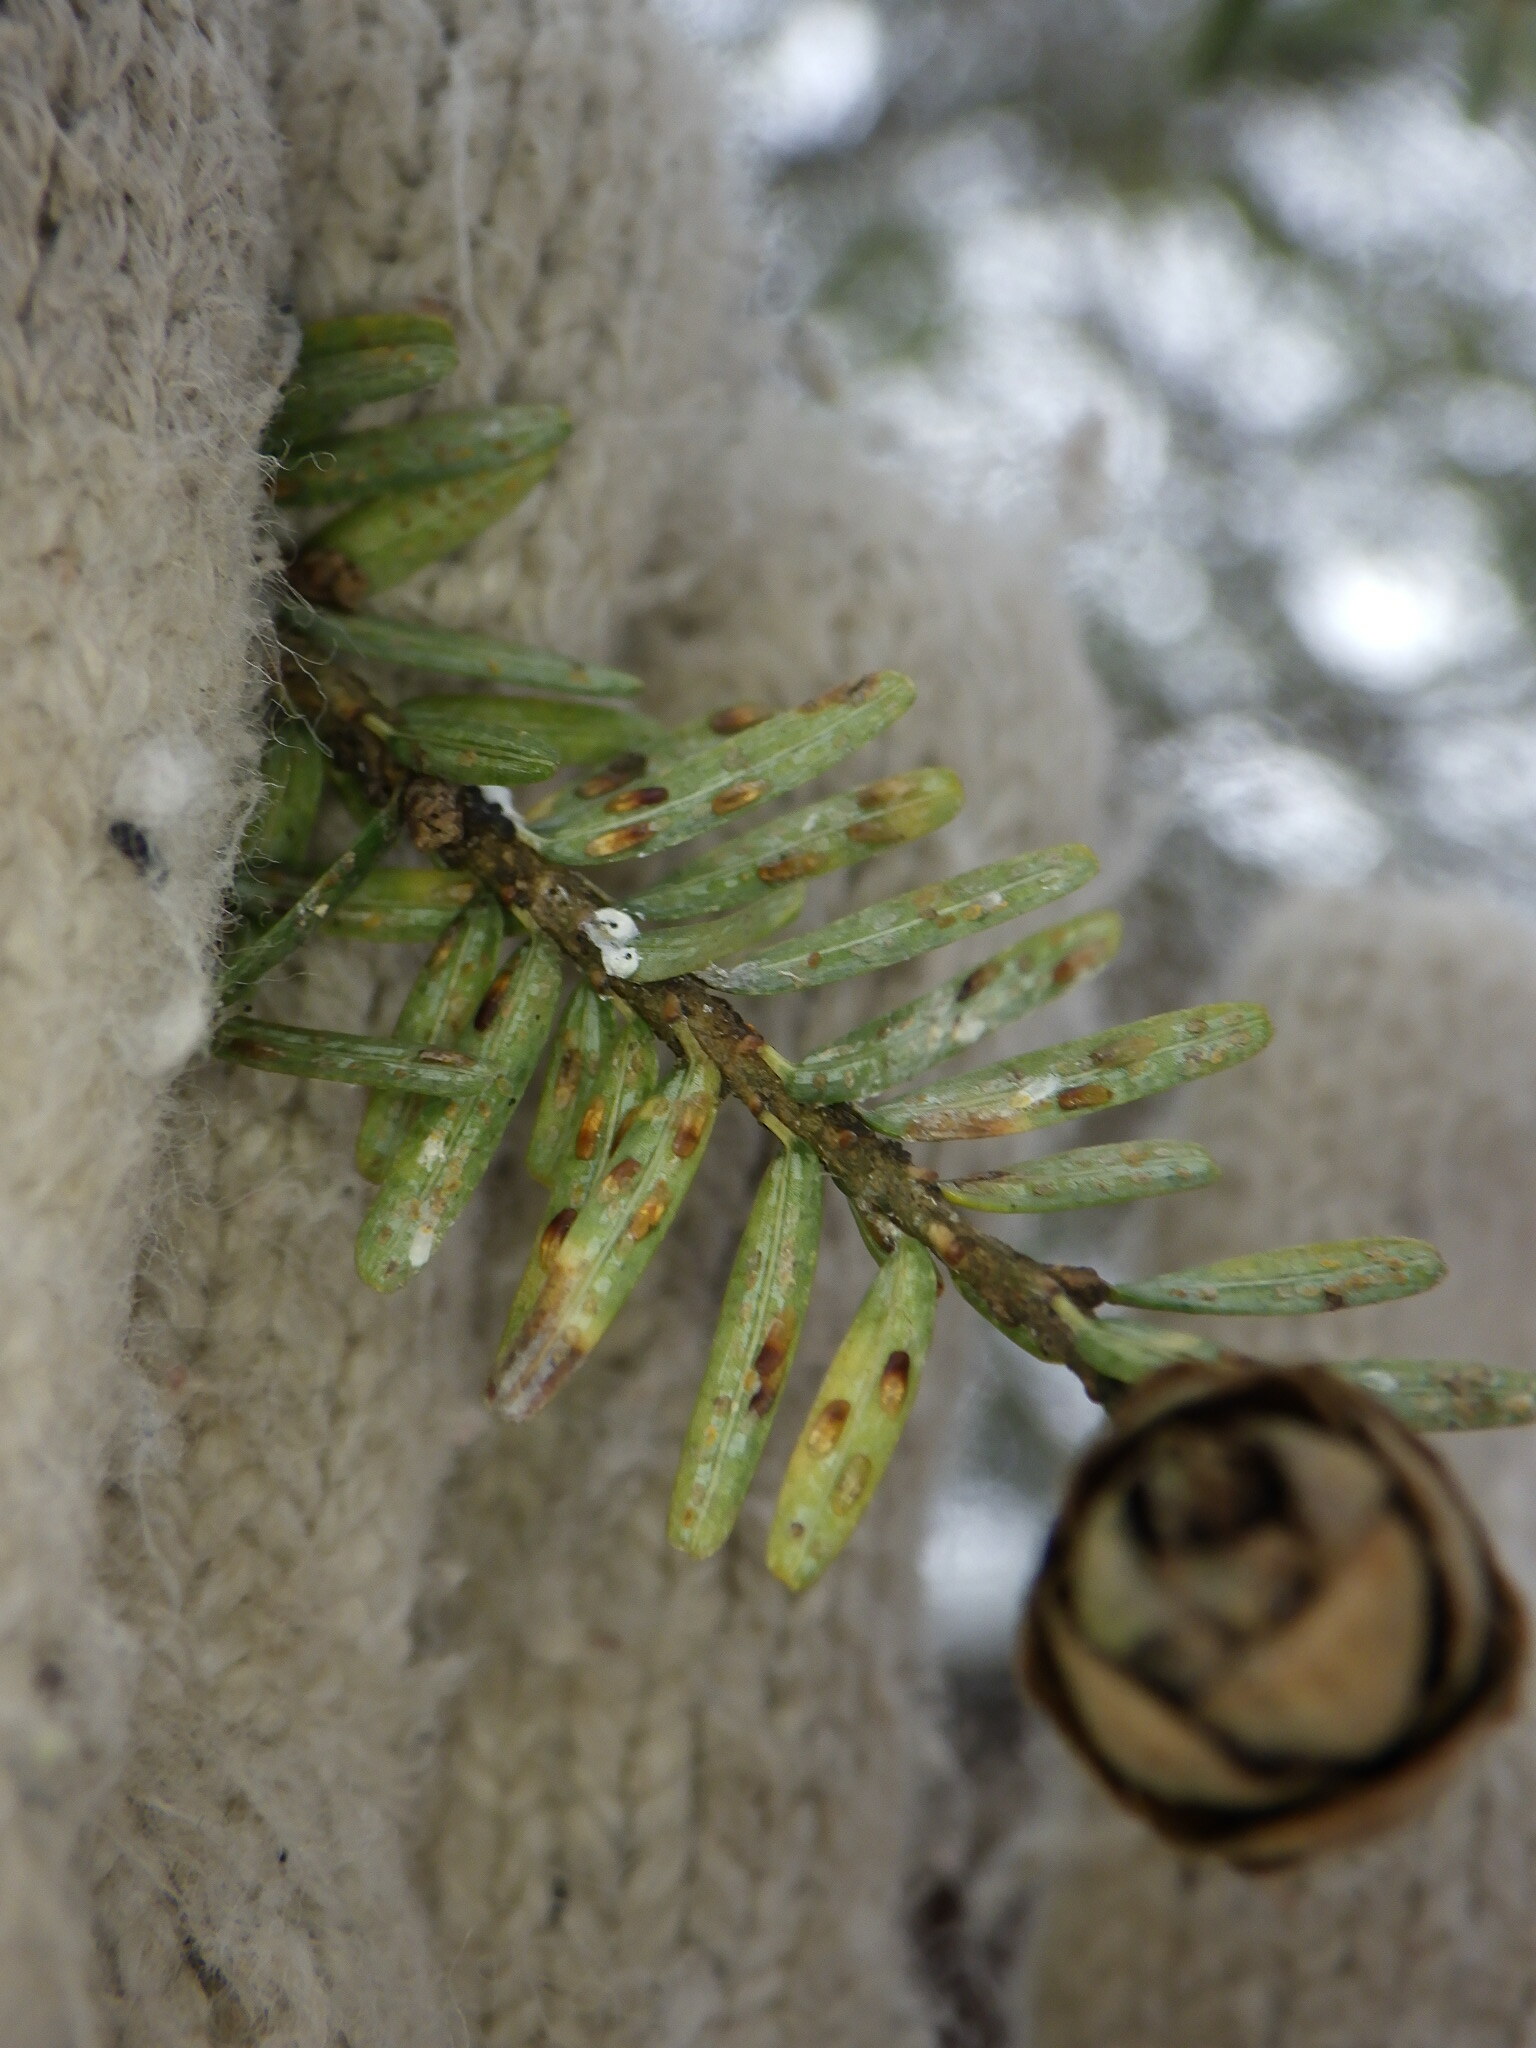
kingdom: Animalia
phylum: Arthropoda
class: Insecta
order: Hemiptera
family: Diaspididae
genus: Fiorinia
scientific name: Fiorinia externa
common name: Elongate hemlock scale
